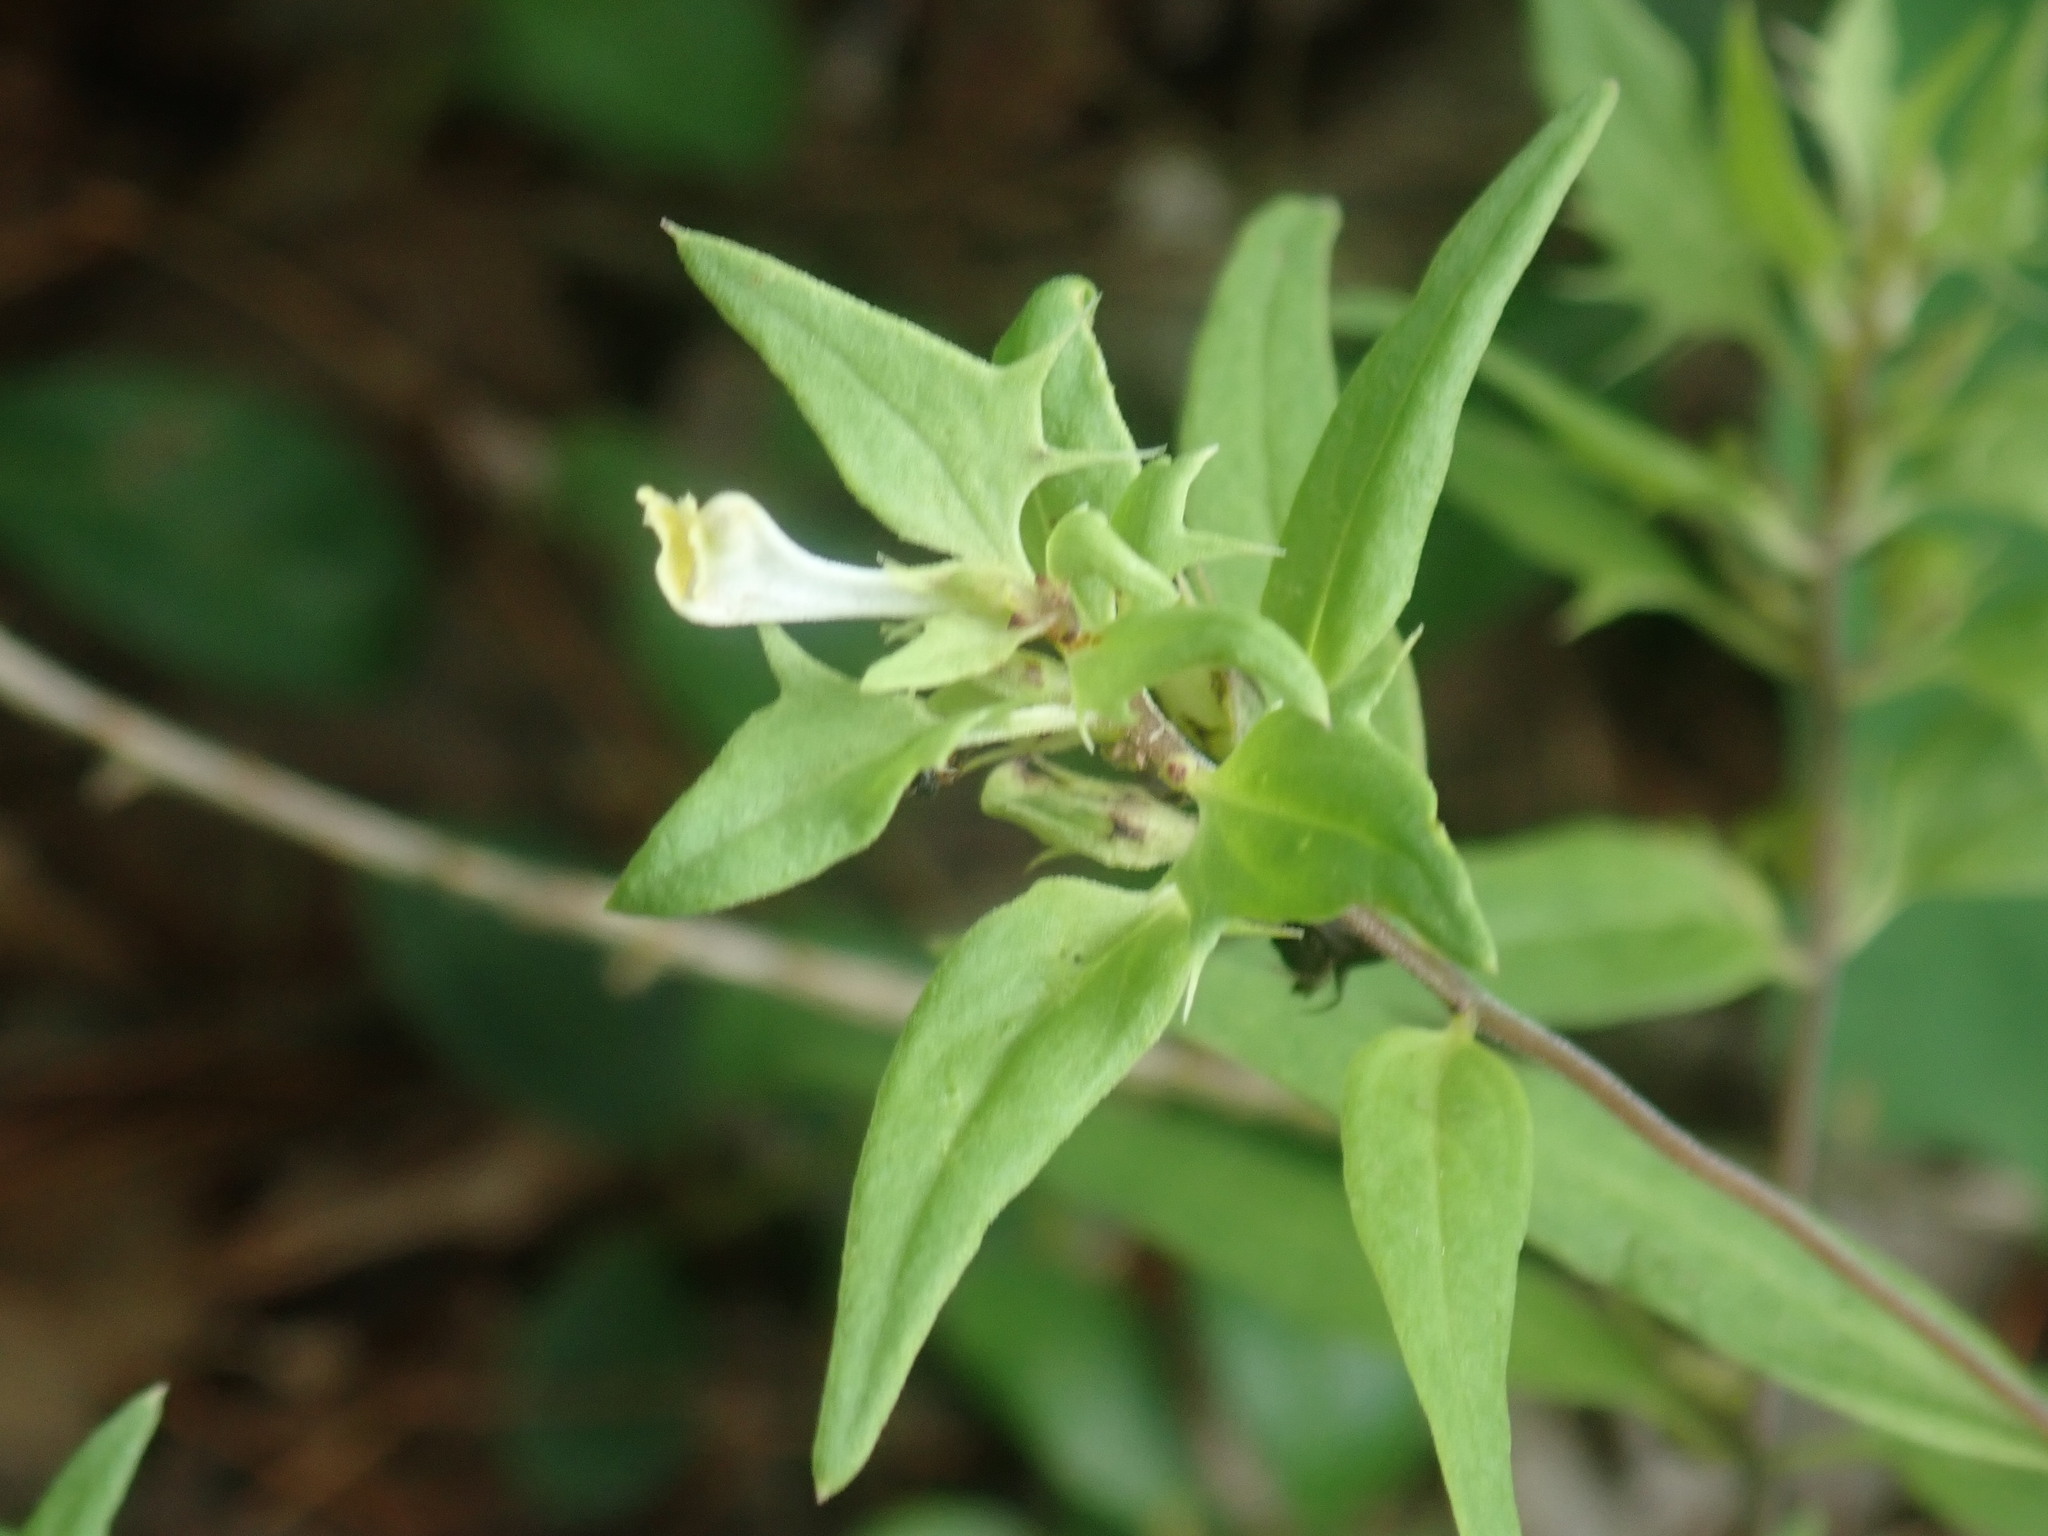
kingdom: Plantae
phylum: Tracheophyta
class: Magnoliopsida
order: Lamiales
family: Orobanchaceae
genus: Melampyrum
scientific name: Melampyrum lineare
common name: American cow-wheat
